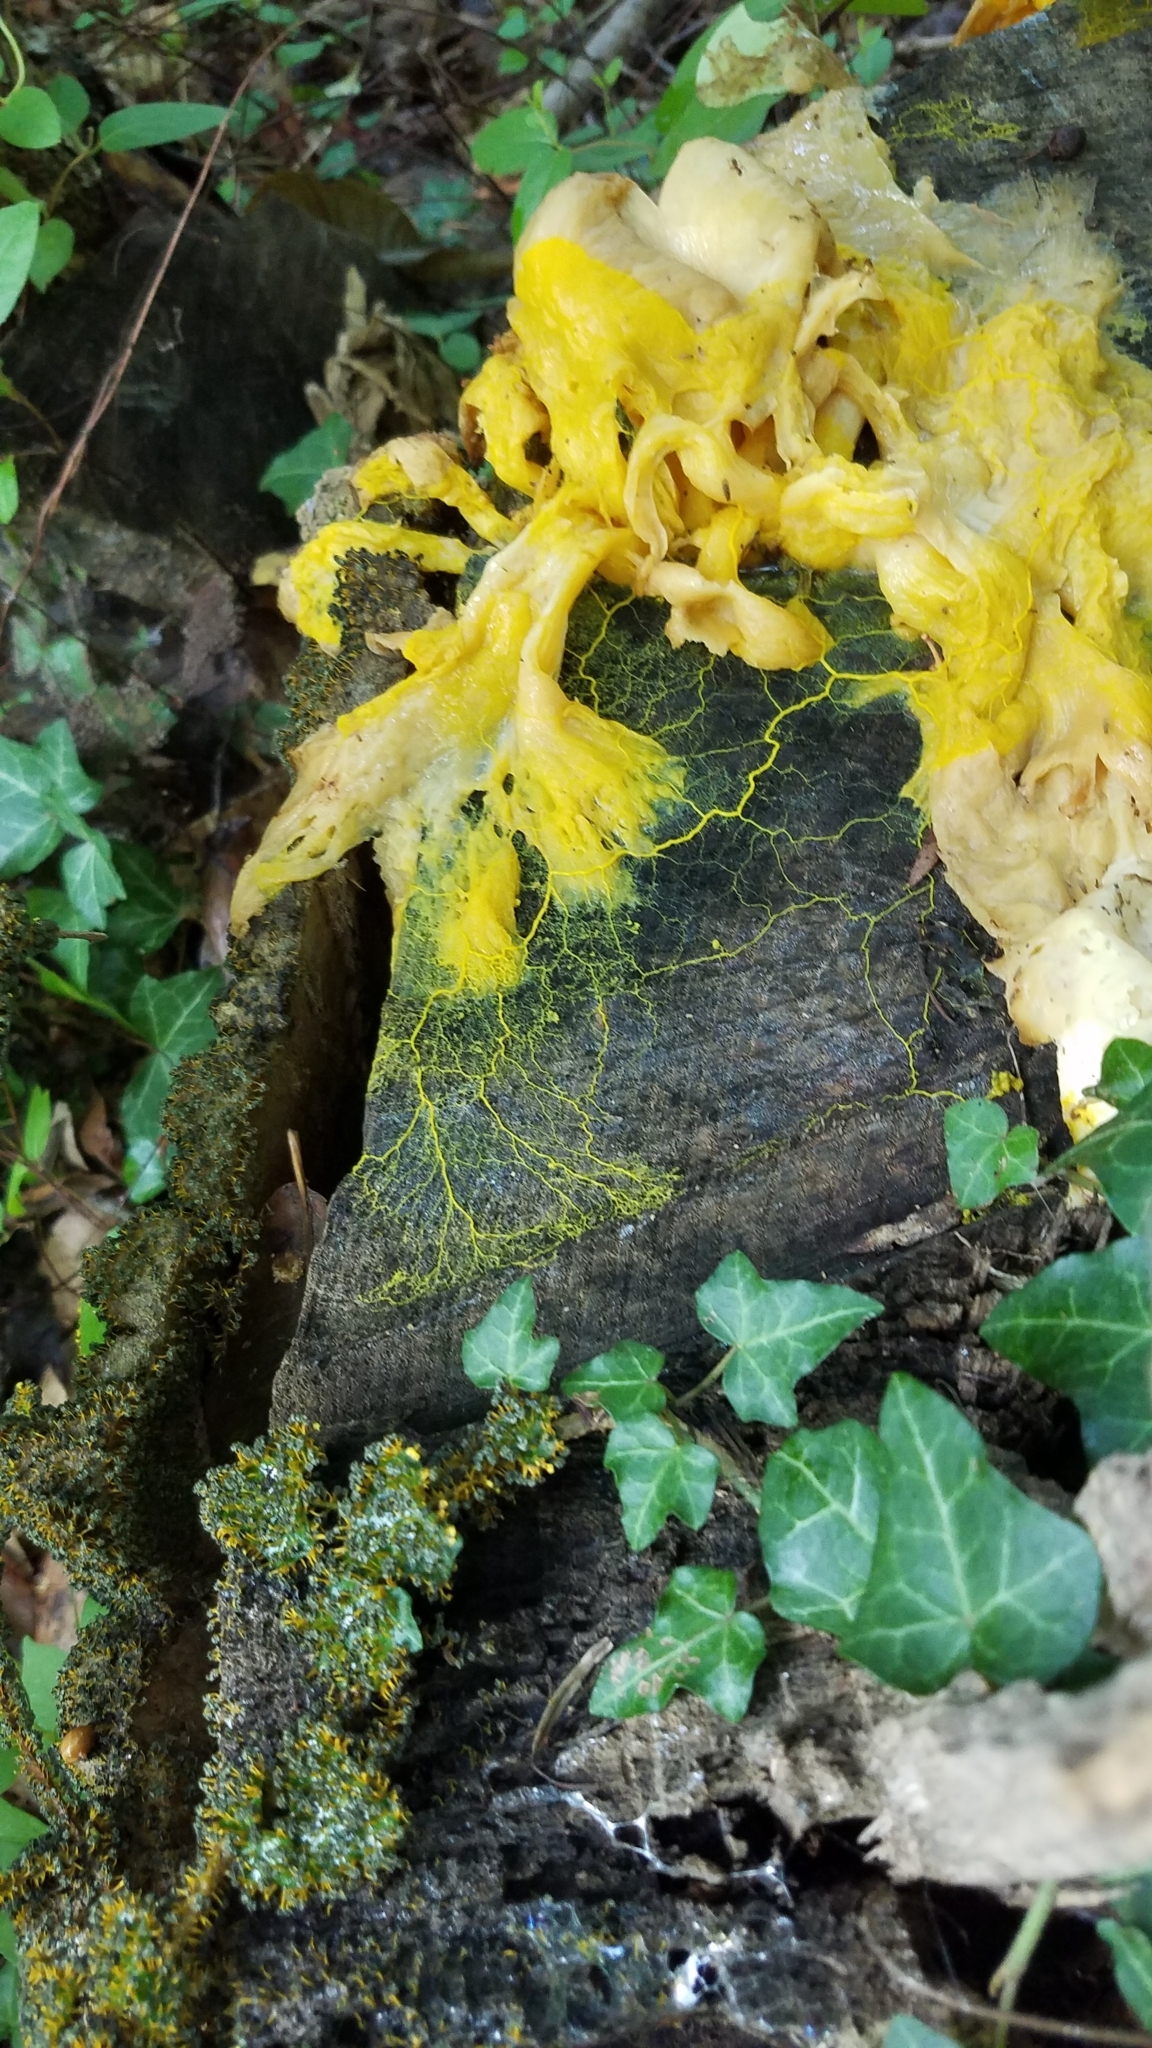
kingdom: Protozoa
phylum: Mycetozoa
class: Myxomycetes
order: Physarales
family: Physaraceae
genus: Physarum
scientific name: Physarum polycephalum
